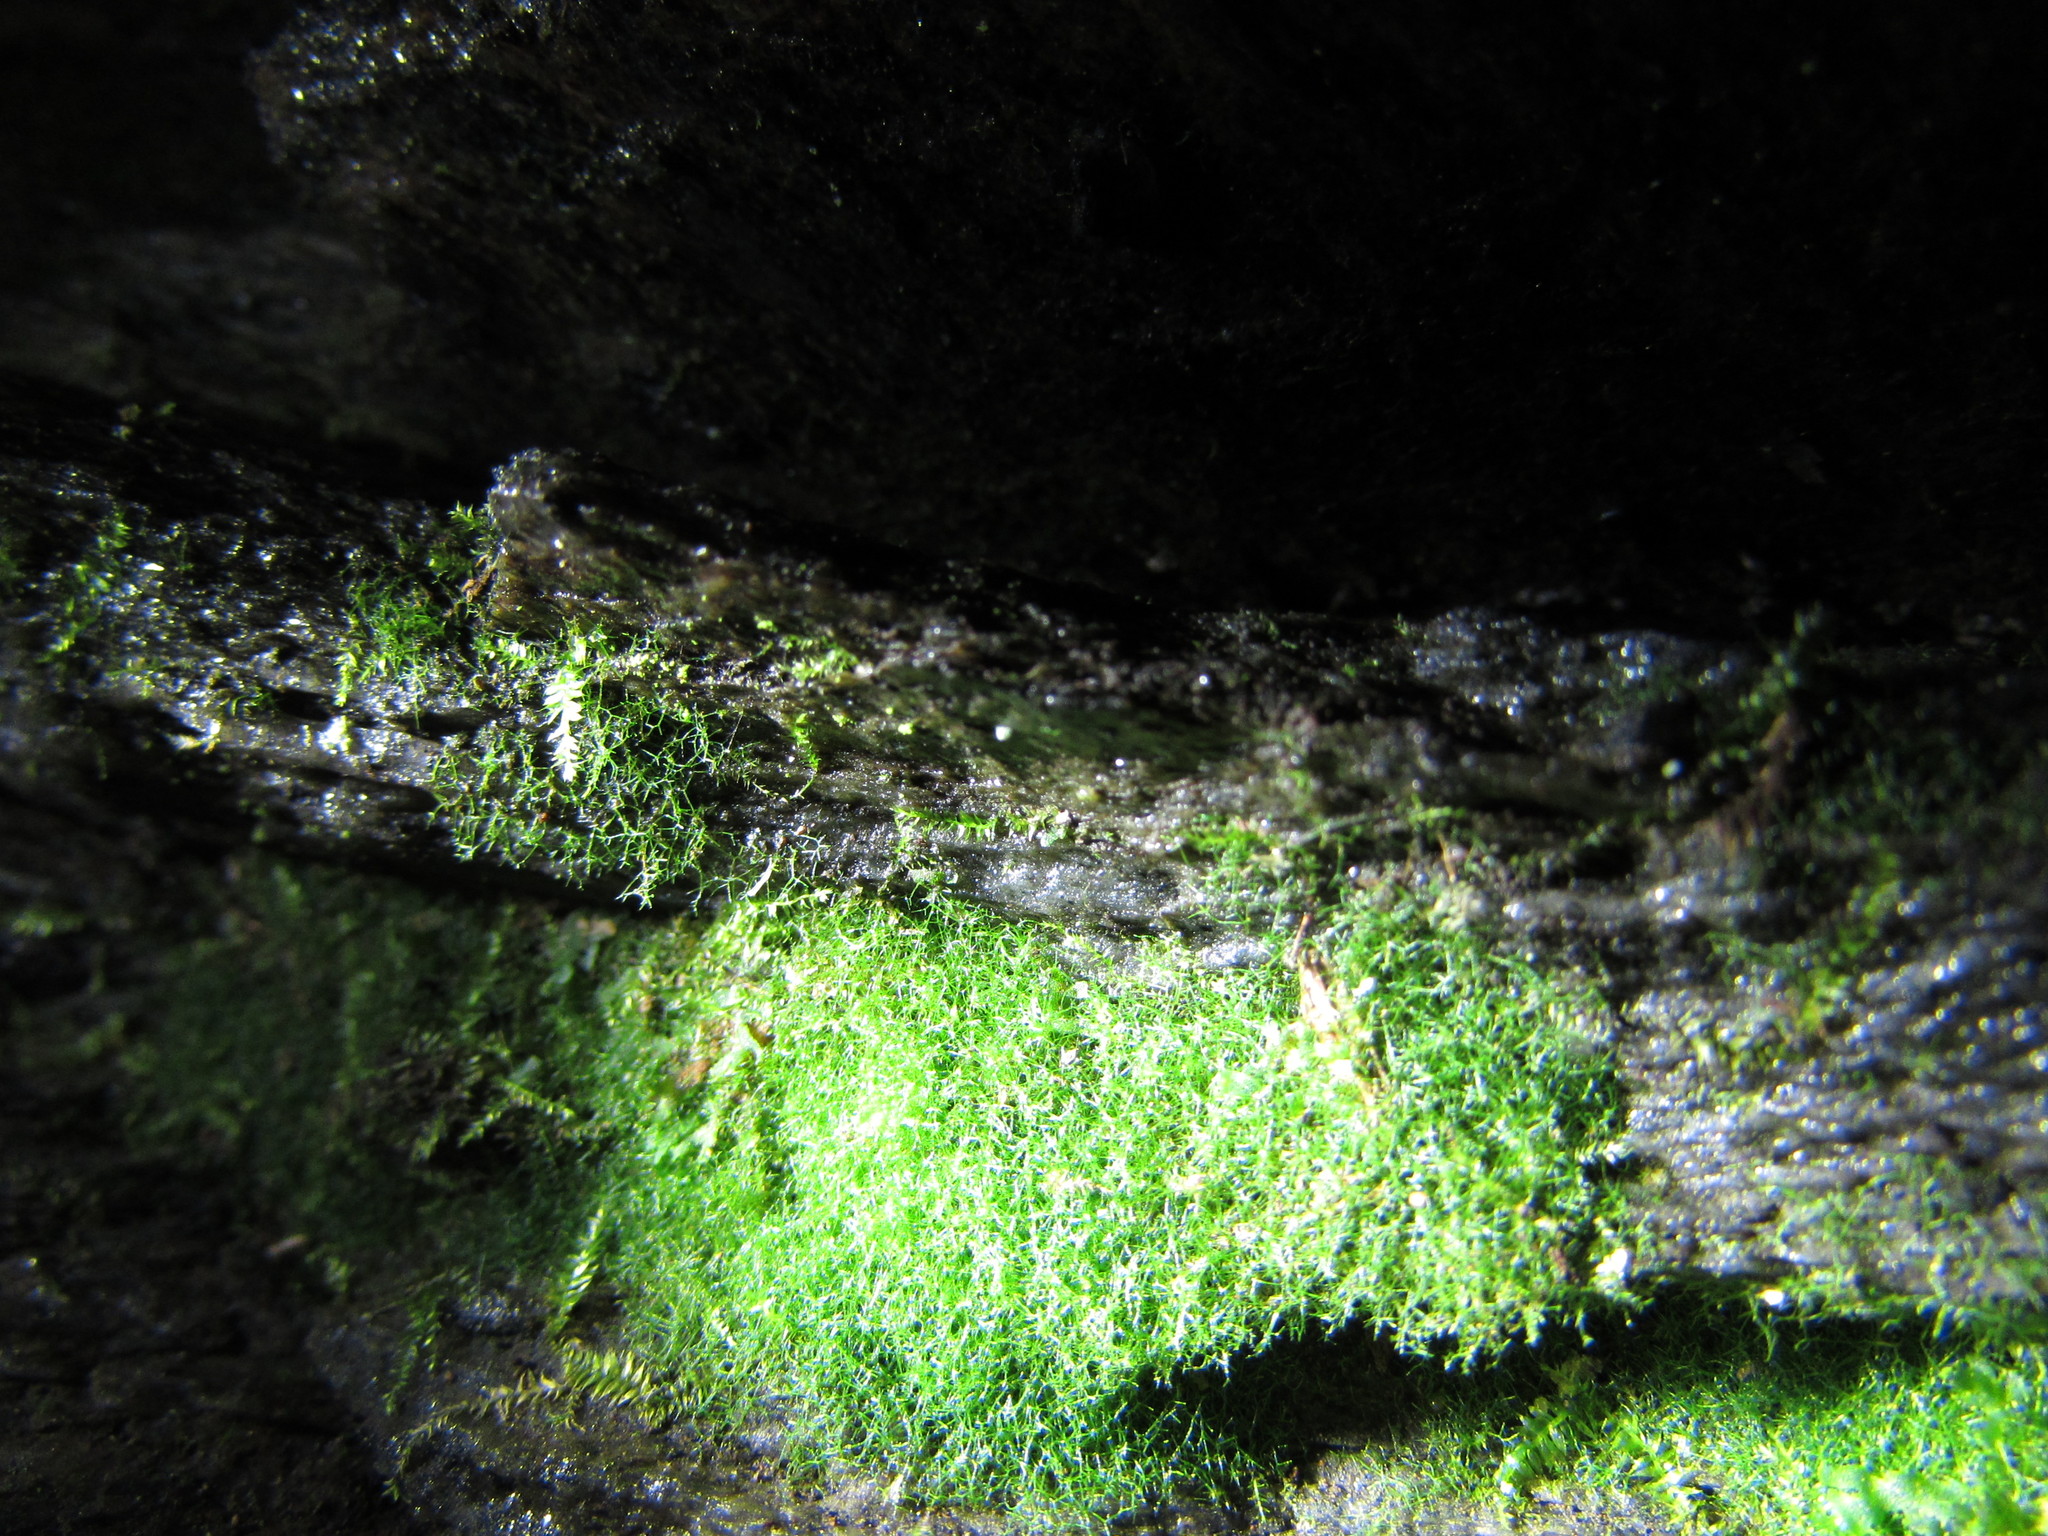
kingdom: Plantae
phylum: Tracheophyta
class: Polypodiopsida
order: Hymenophyllales
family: Hymenophyllaceae
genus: Crepidomanes
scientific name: Crepidomanes intricatum
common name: Weft fern
